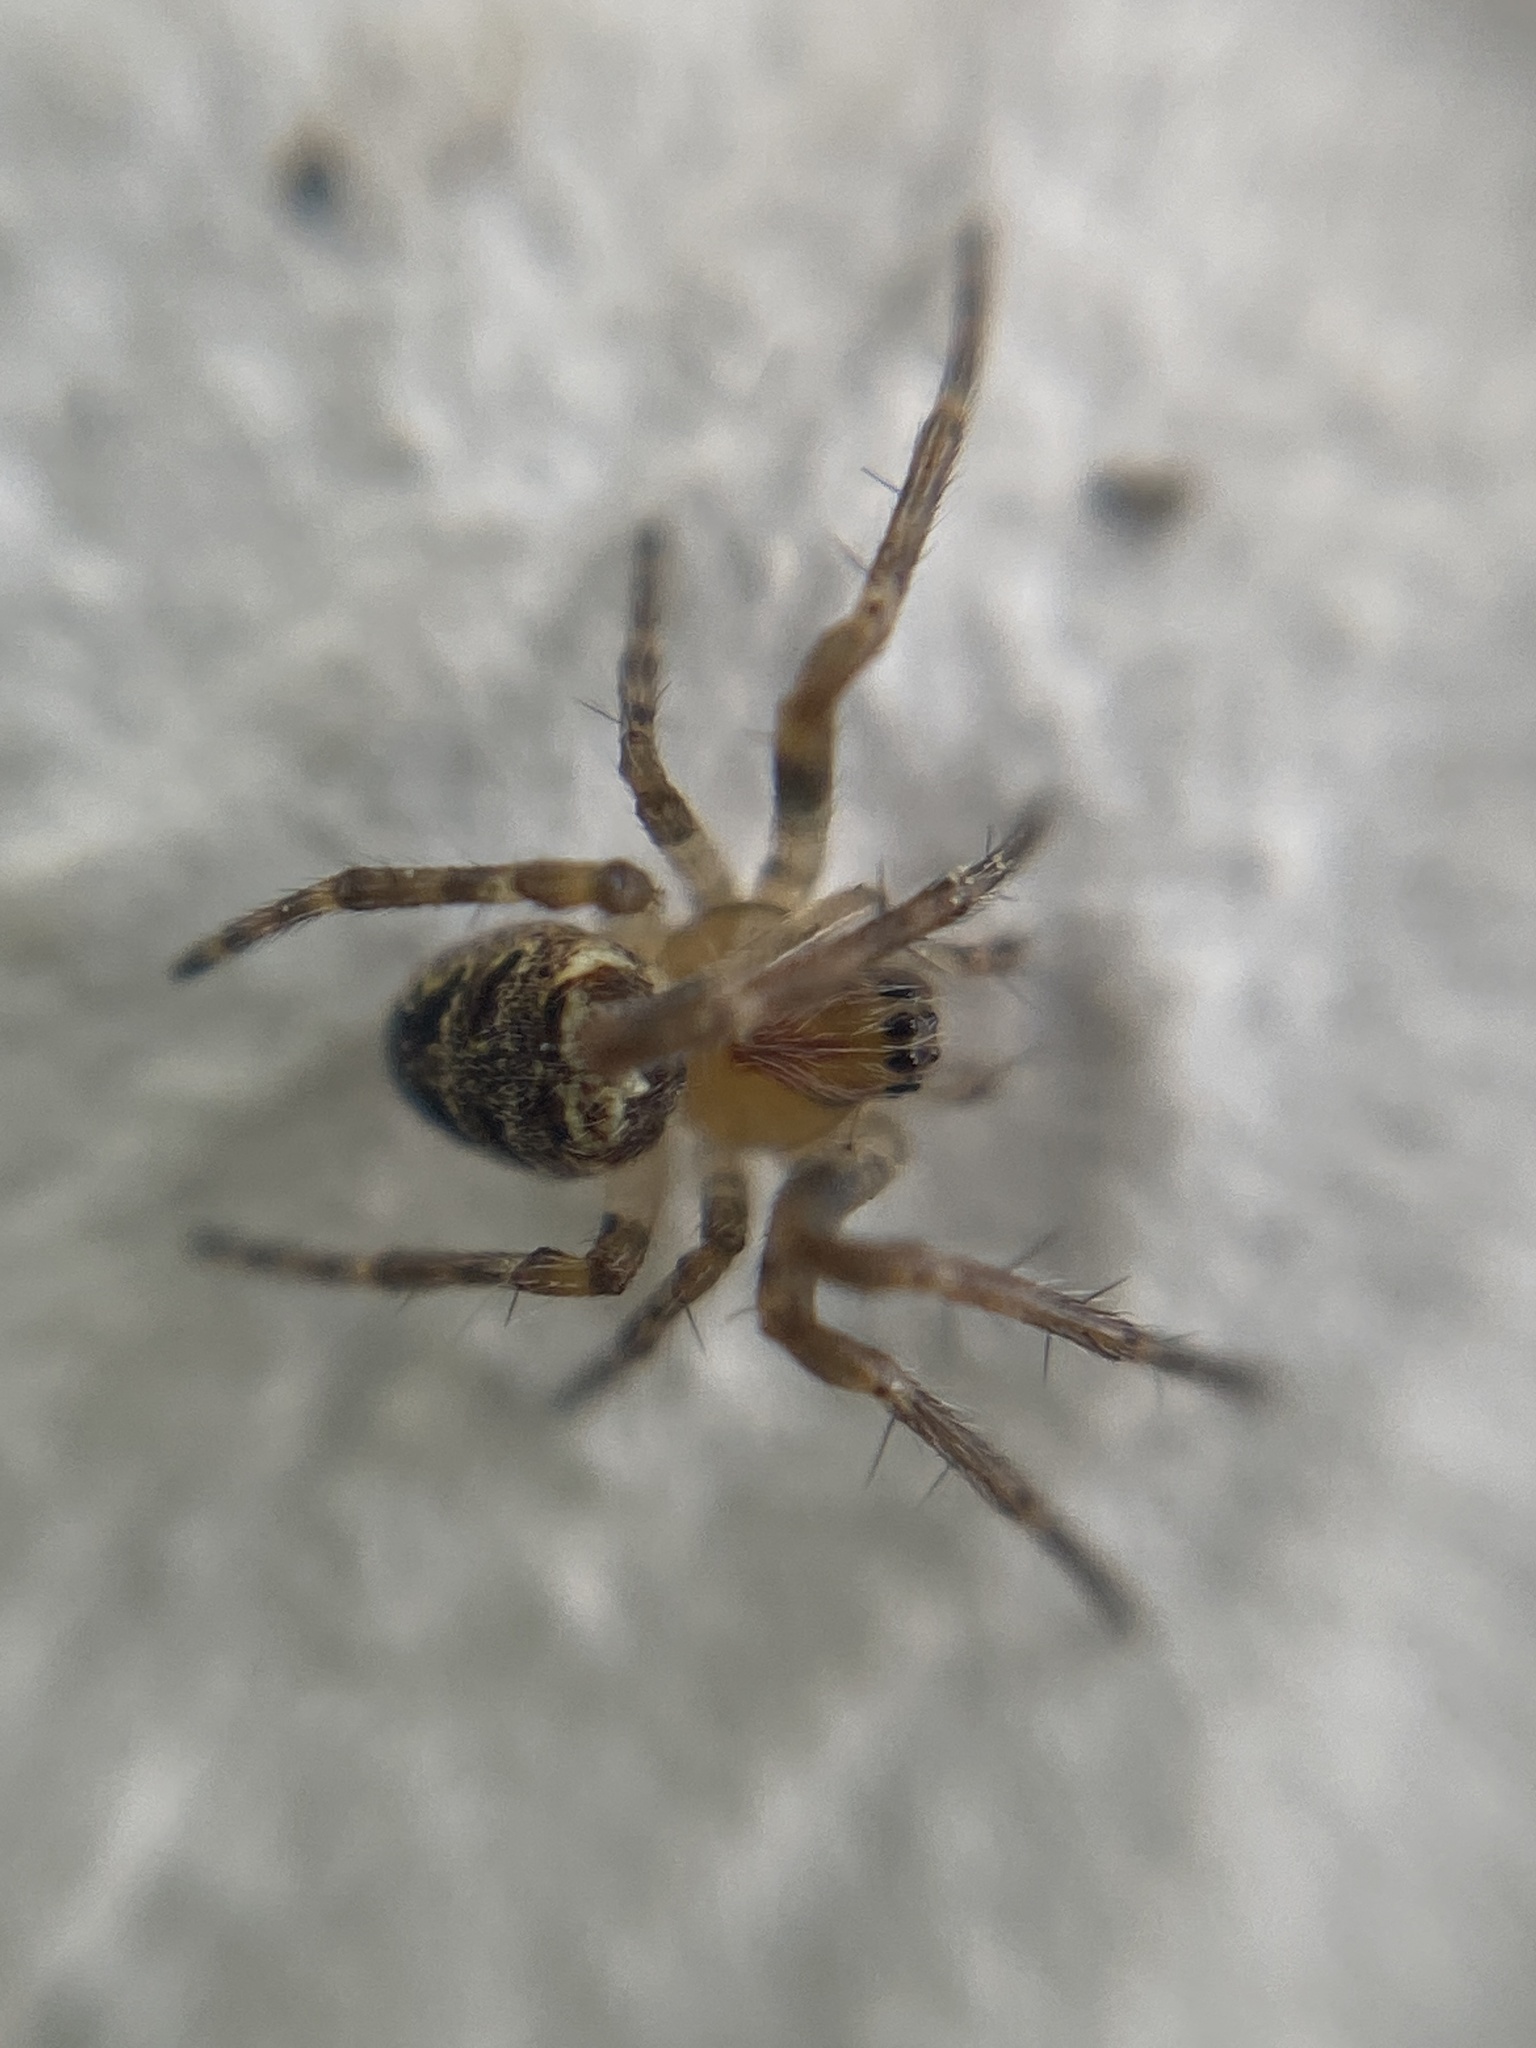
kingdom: Animalia
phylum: Arthropoda
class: Arachnida
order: Araneae
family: Araneidae
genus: Zilla
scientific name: Zilla diodia
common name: Zilla diodia
